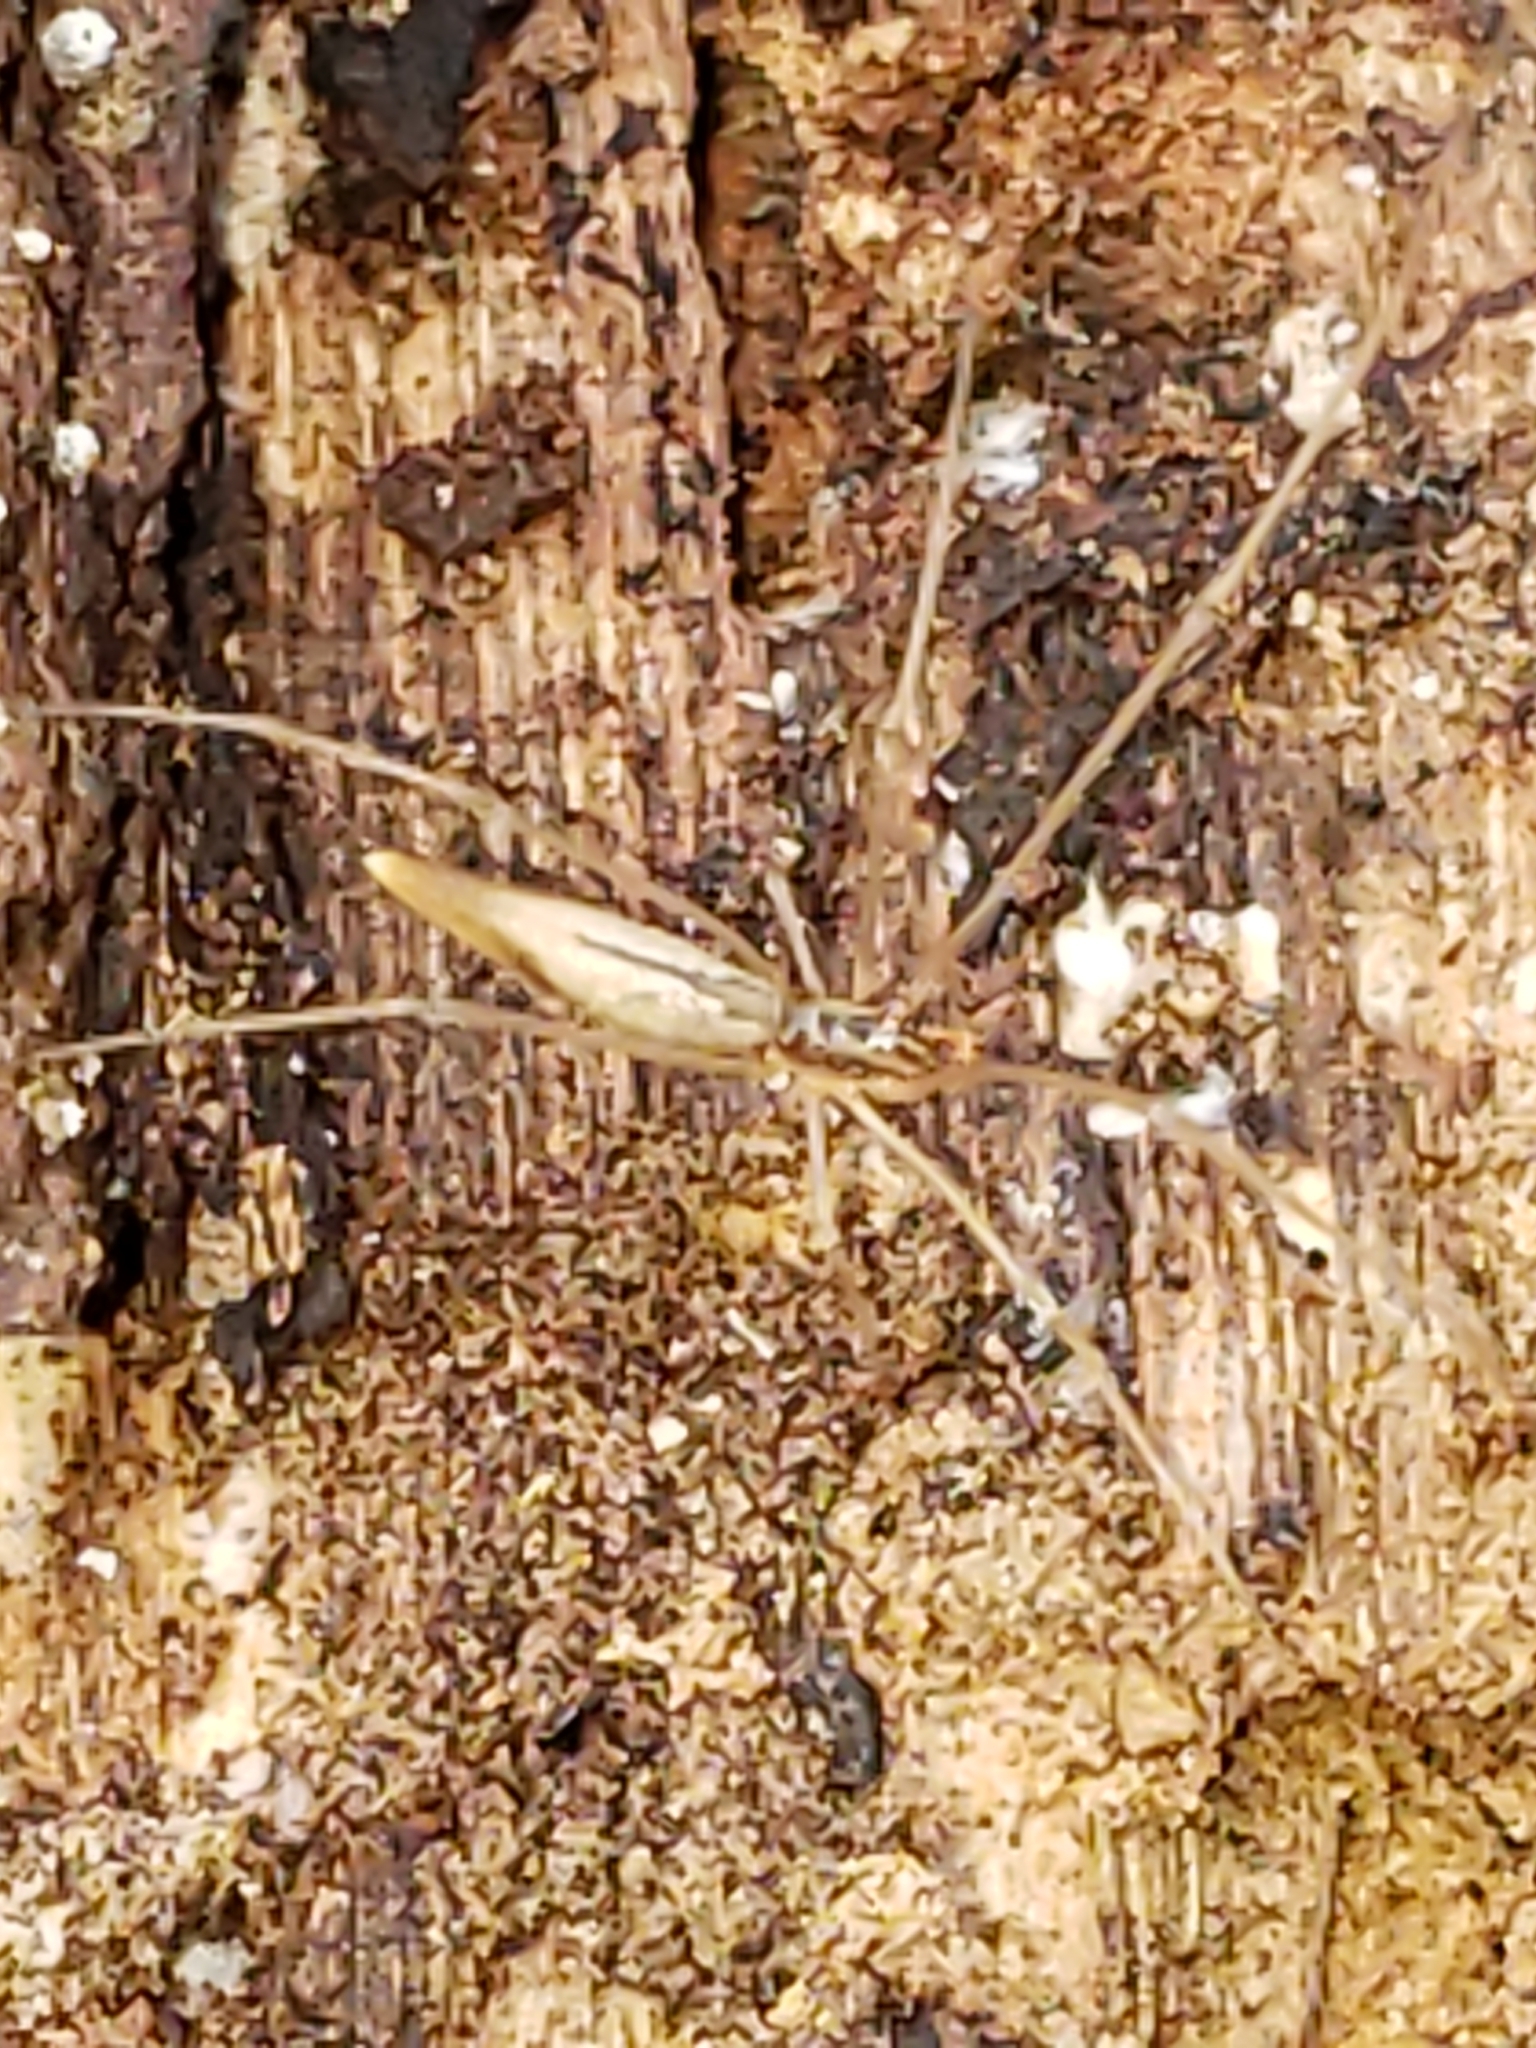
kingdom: Animalia
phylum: Arthropoda
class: Arachnida
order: Araneae
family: Theridiidae
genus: Rhomphaea
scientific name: Rhomphaea fictilium
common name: Lizard spider
